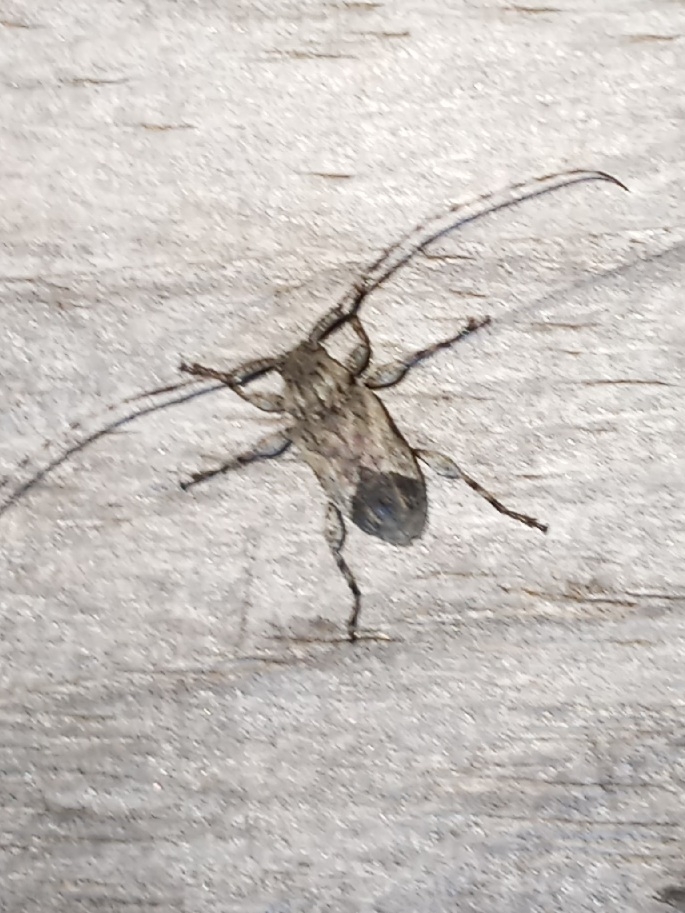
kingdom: Animalia
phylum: Arthropoda
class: Insecta
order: Coleoptera
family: Cerambycidae
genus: Styloleptus
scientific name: Styloleptus biustus
